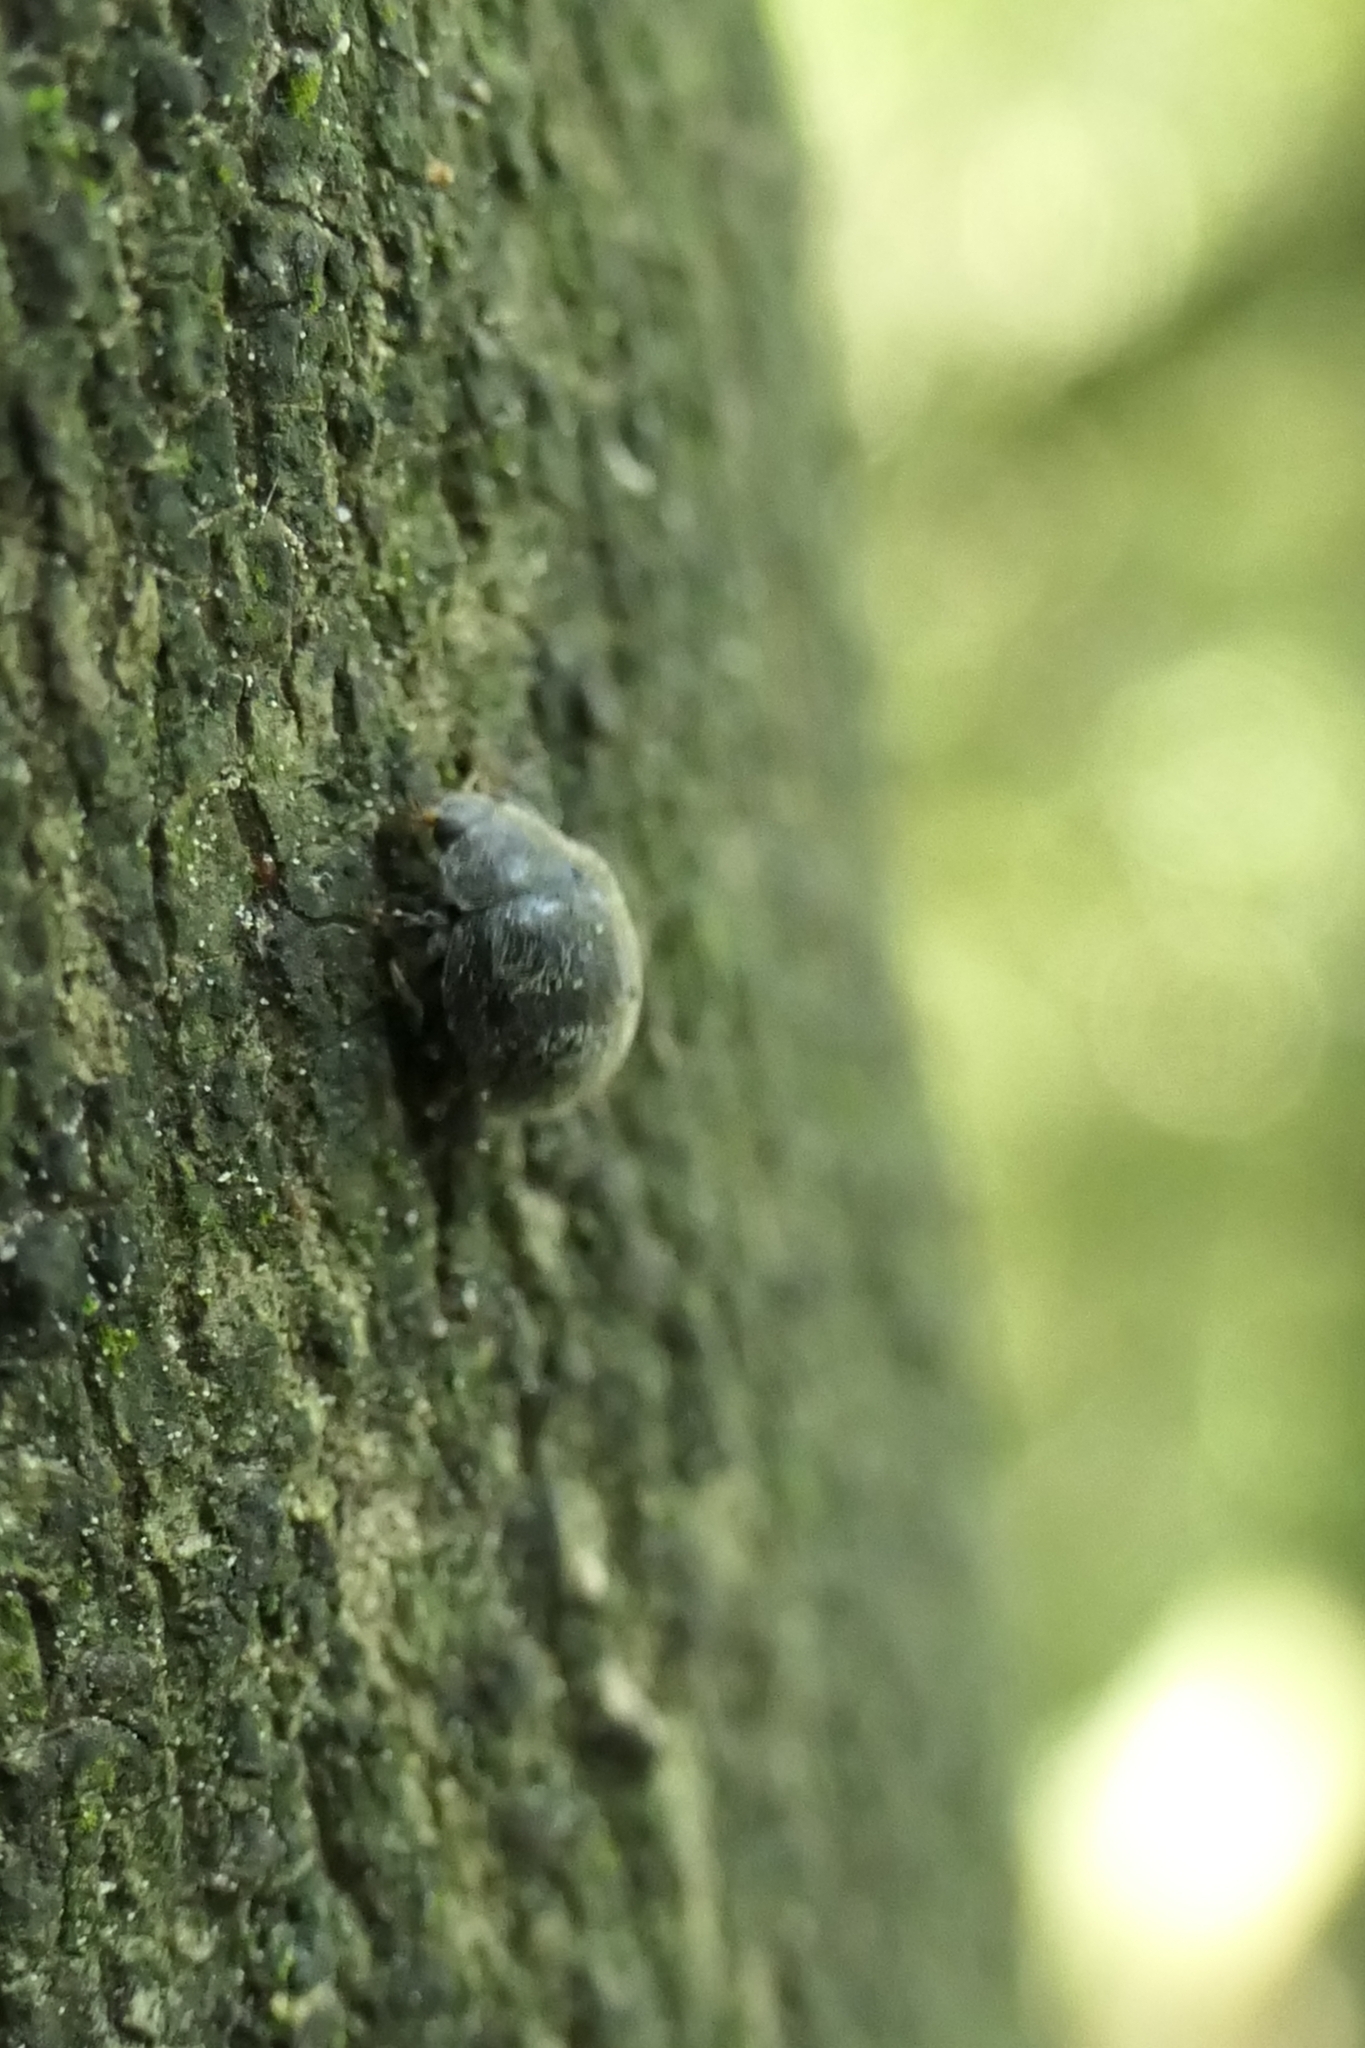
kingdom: Animalia
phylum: Arthropoda
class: Insecta
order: Coleoptera
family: Coccinellidae
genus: Rhyzobius
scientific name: Rhyzobius forestieri
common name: Ladybird beetle
